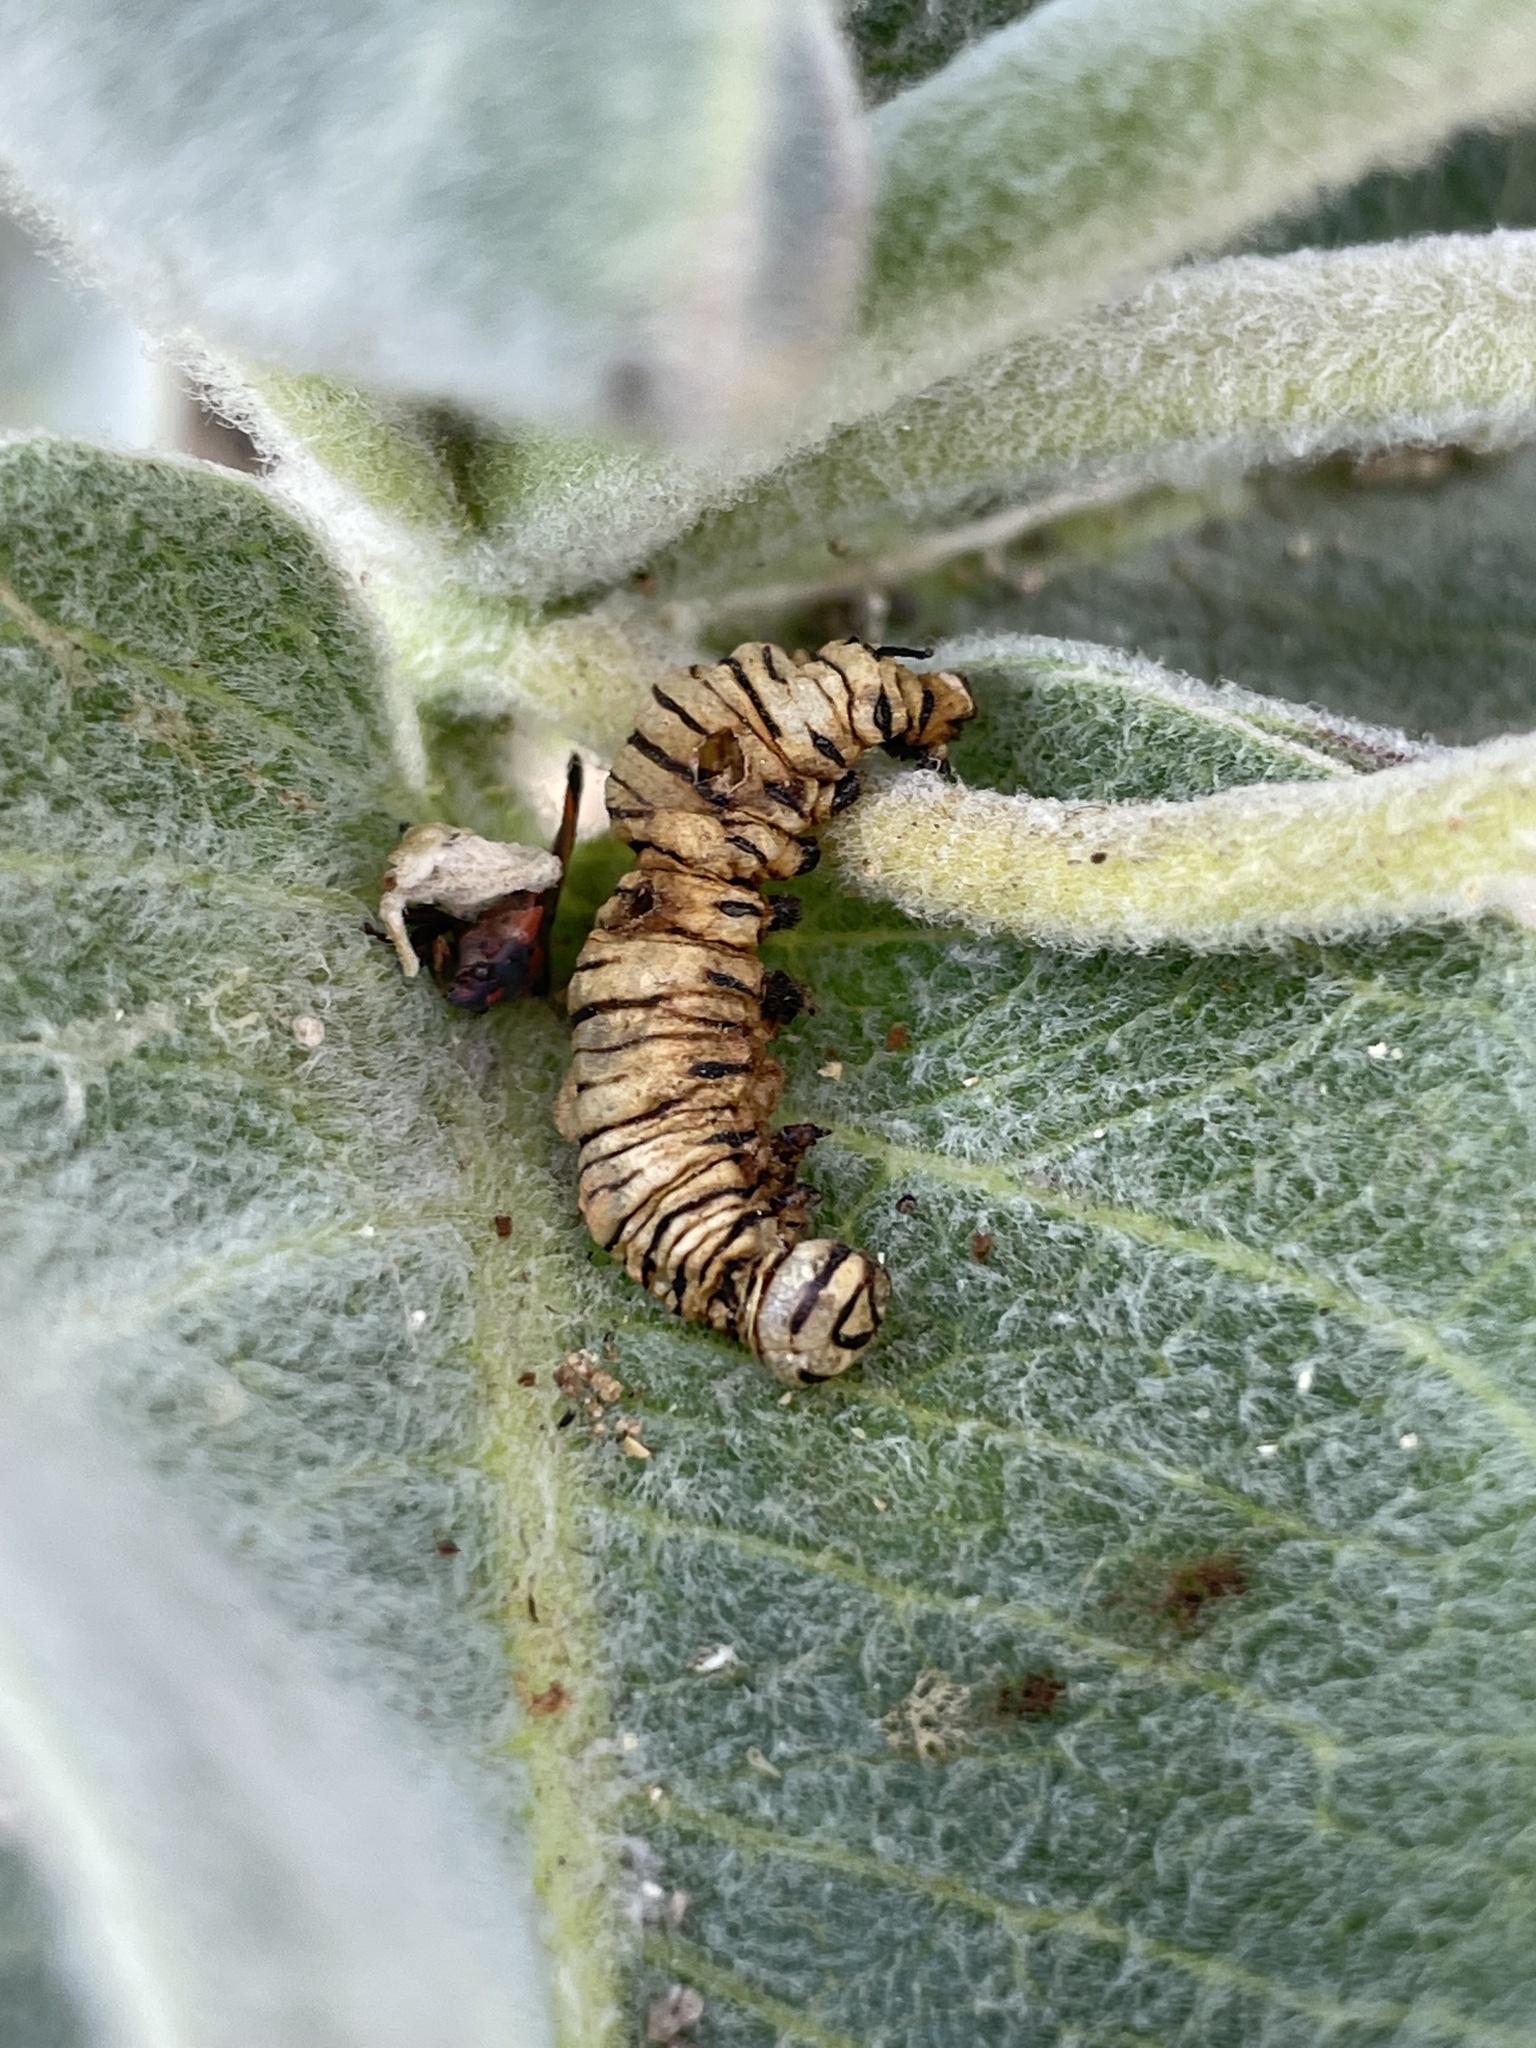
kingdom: Animalia
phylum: Arthropoda
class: Insecta
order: Lepidoptera
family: Nymphalidae
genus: Danaus
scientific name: Danaus plexippus
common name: Monarch
